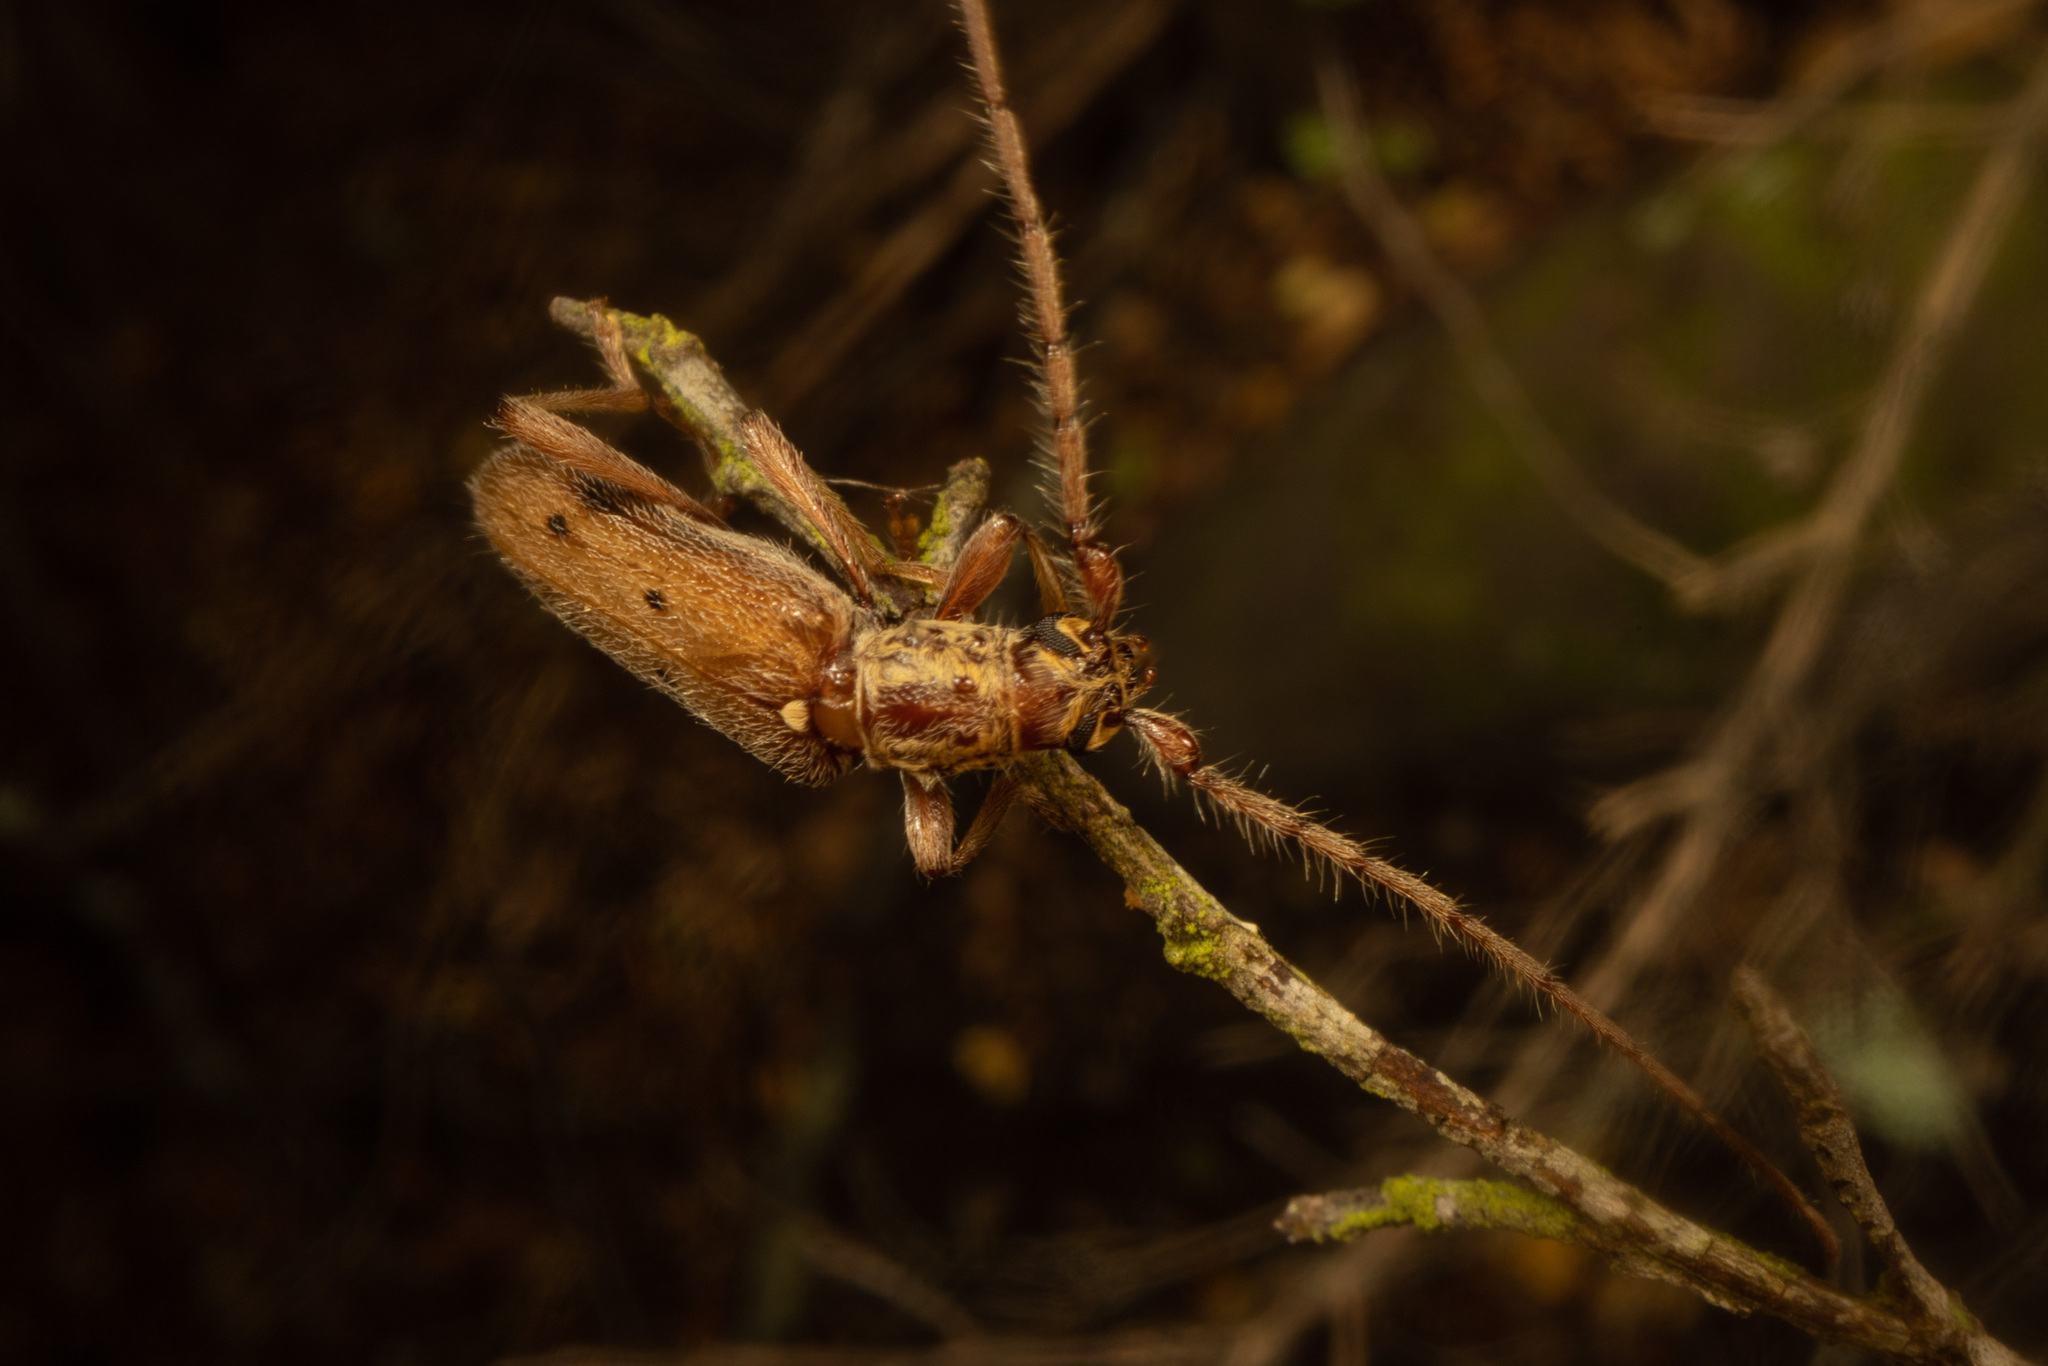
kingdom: Animalia
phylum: Arthropoda
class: Insecta
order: Coleoptera
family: Cerambycidae
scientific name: Cerambycidae
